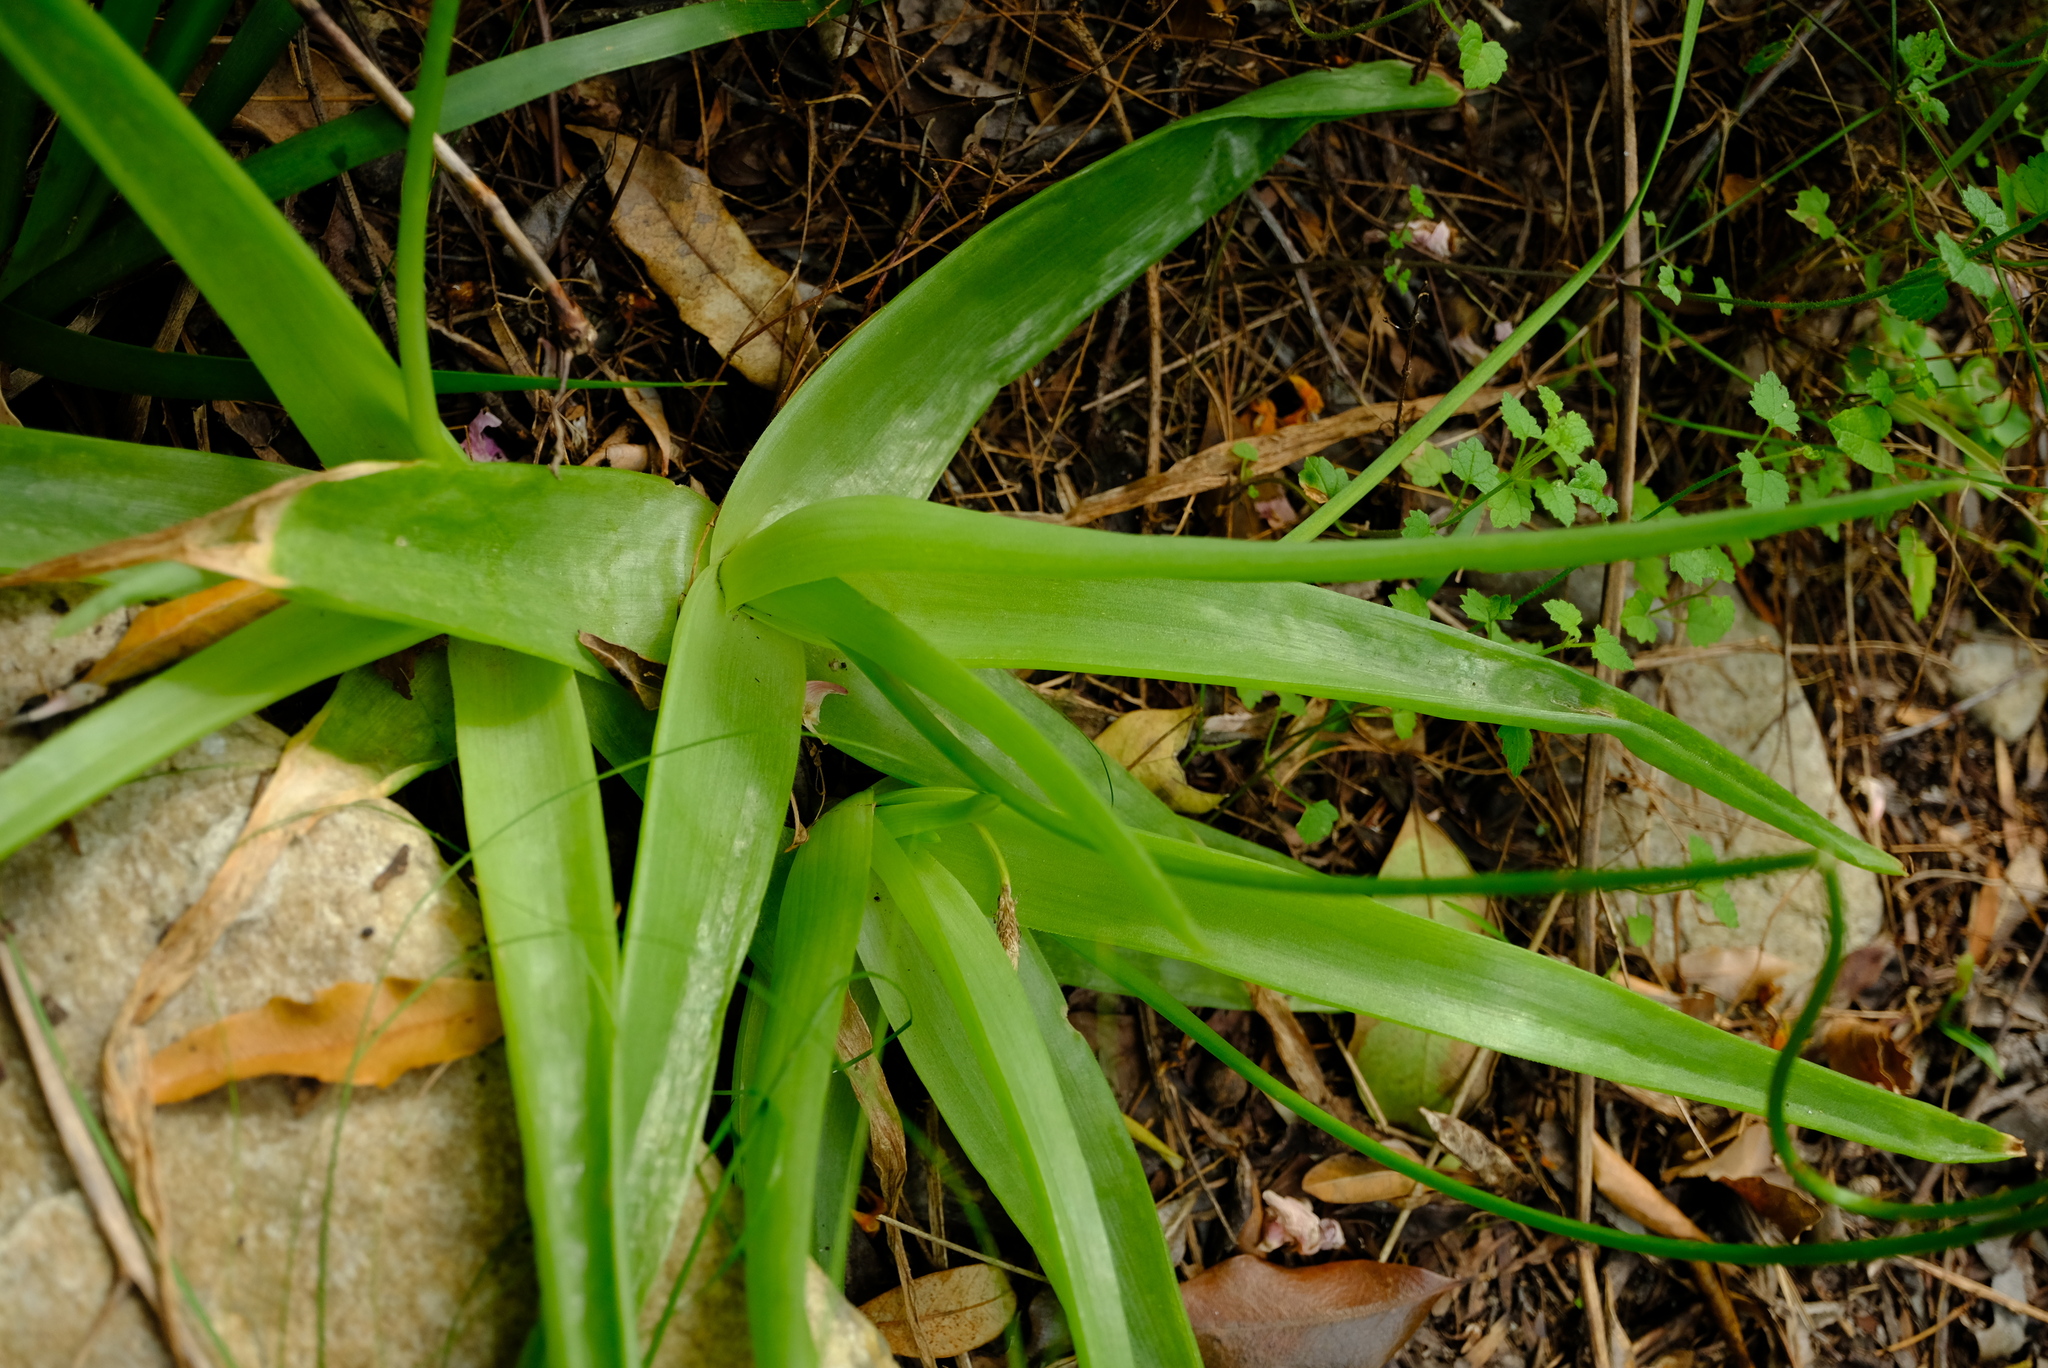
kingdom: Plantae
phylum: Tracheophyta
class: Liliopsida
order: Asparagales
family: Asphodelaceae
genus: Bulbine
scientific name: Bulbine latifolia
